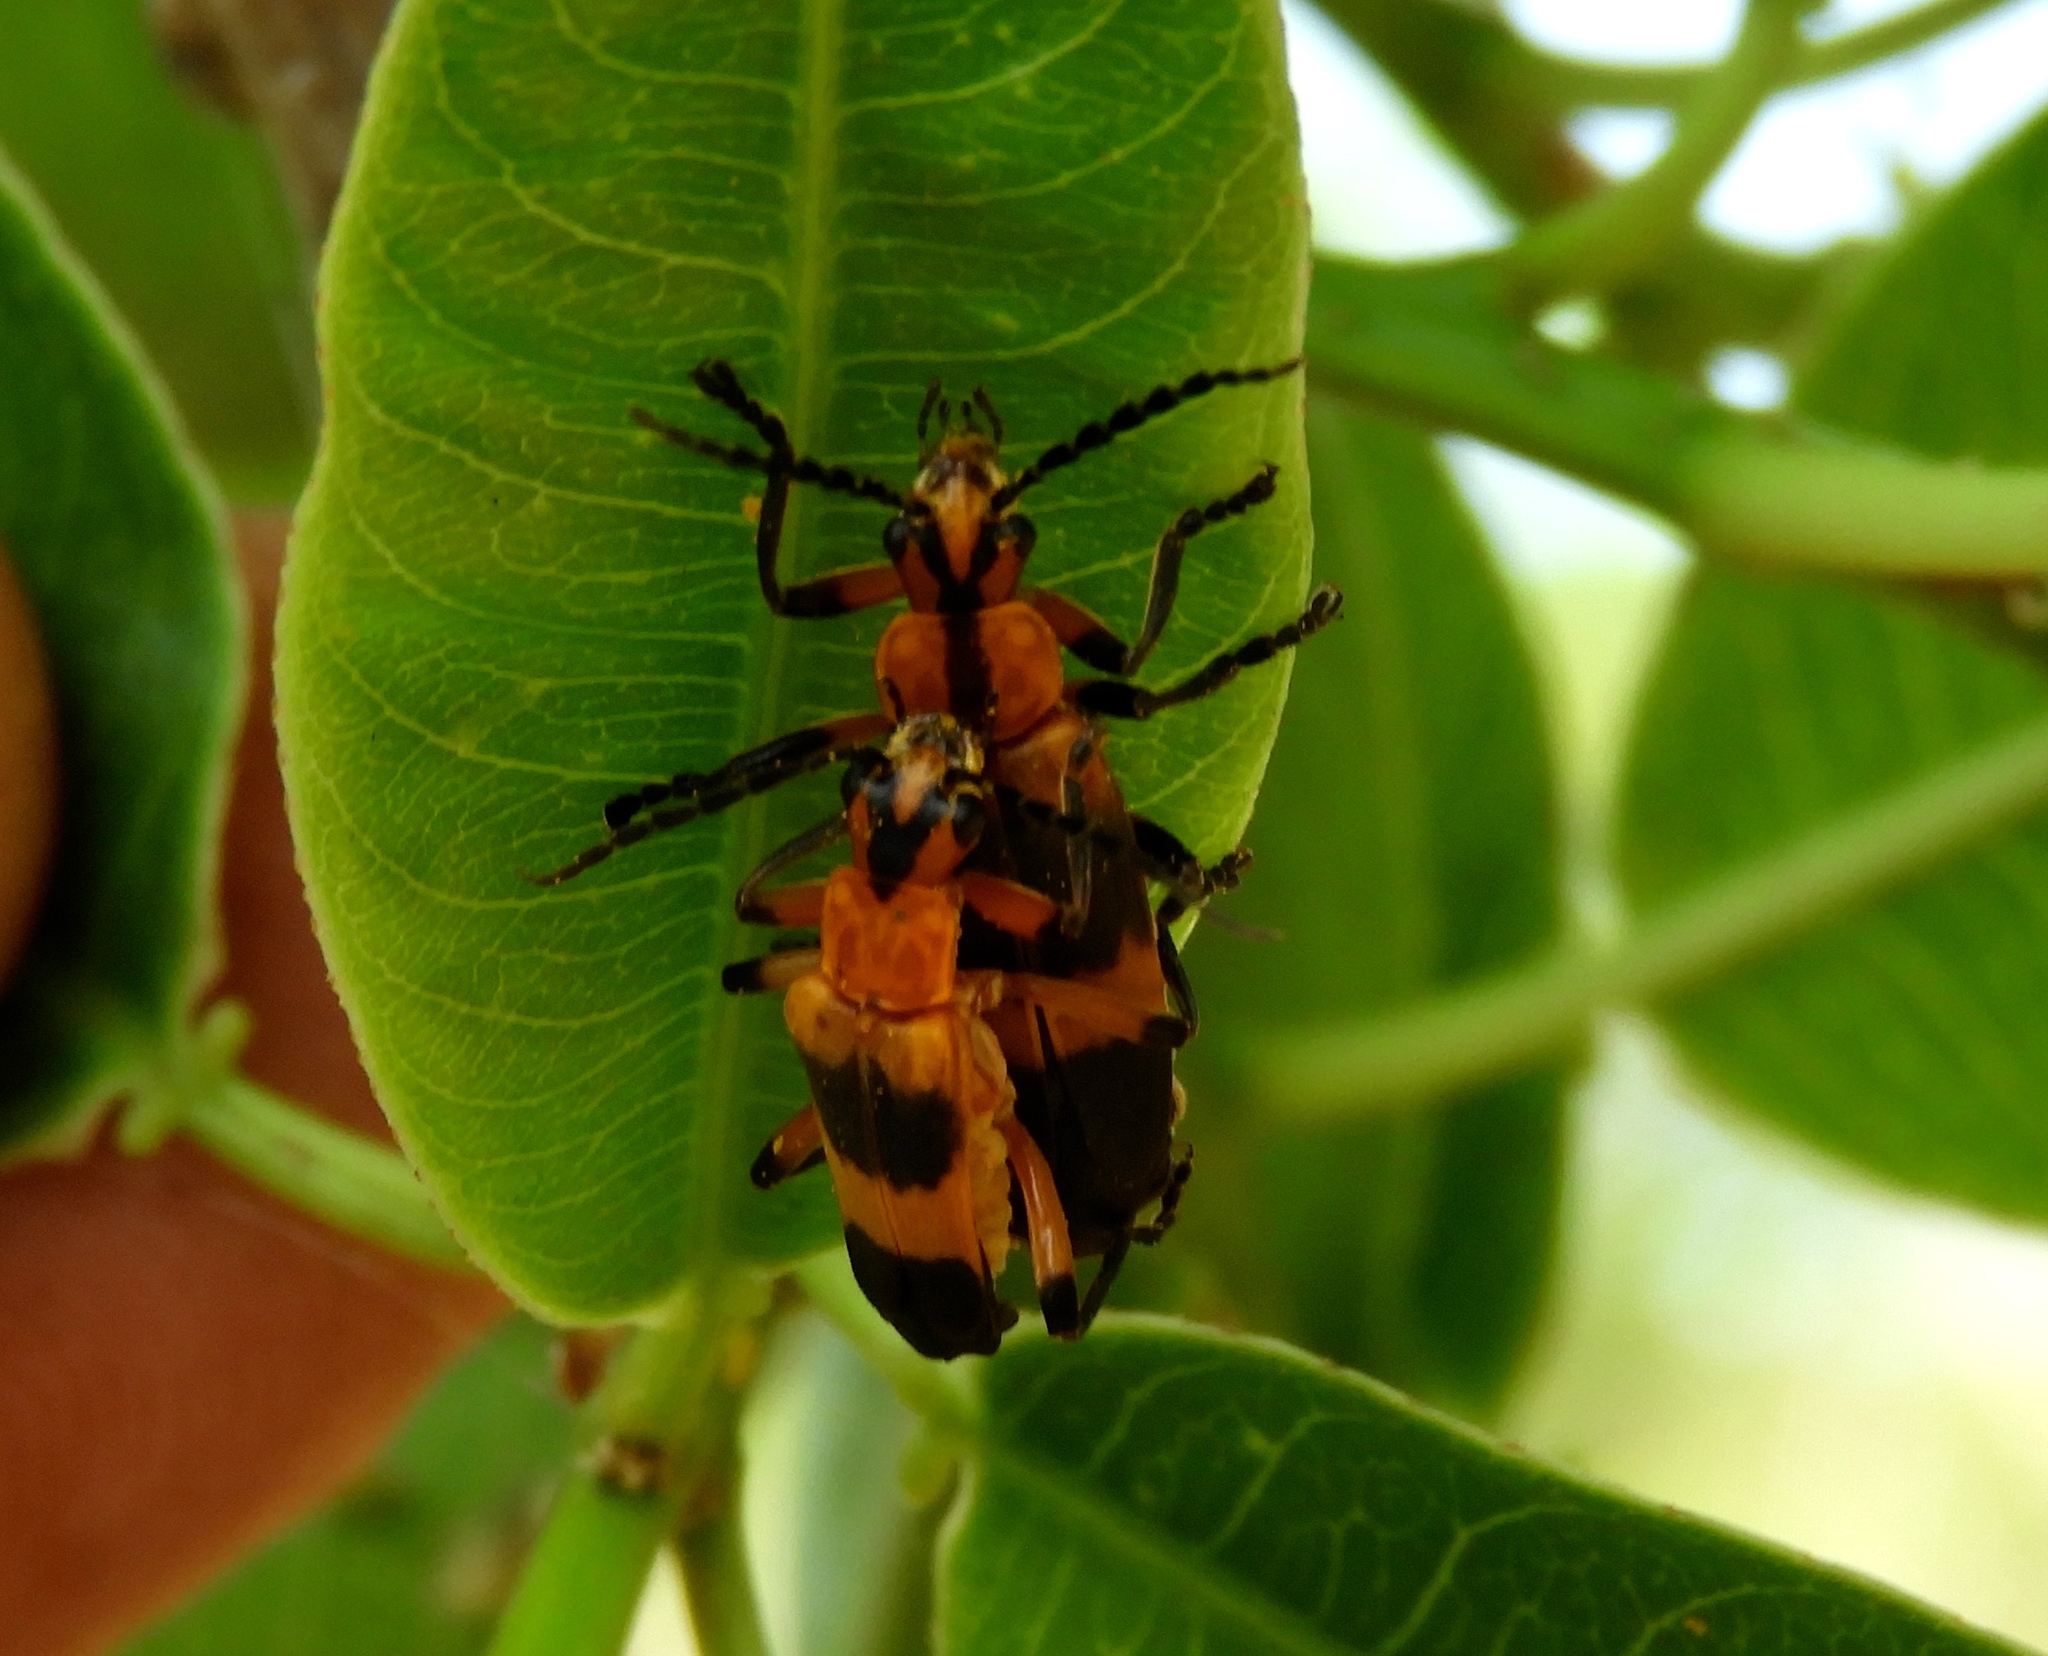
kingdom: Animalia
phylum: Arthropoda
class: Insecta
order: Coleoptera
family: Cantharidae
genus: Daiphron
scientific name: Daiphron proteum
